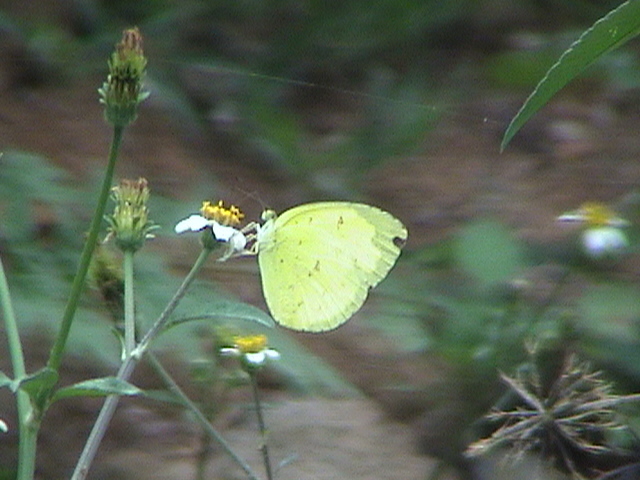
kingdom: Animalia
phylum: Arthropoda
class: Insecta
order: Lepidoptera
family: Pieridae
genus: Eurema
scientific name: Eurema hecabe
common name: Pale grass yellow
